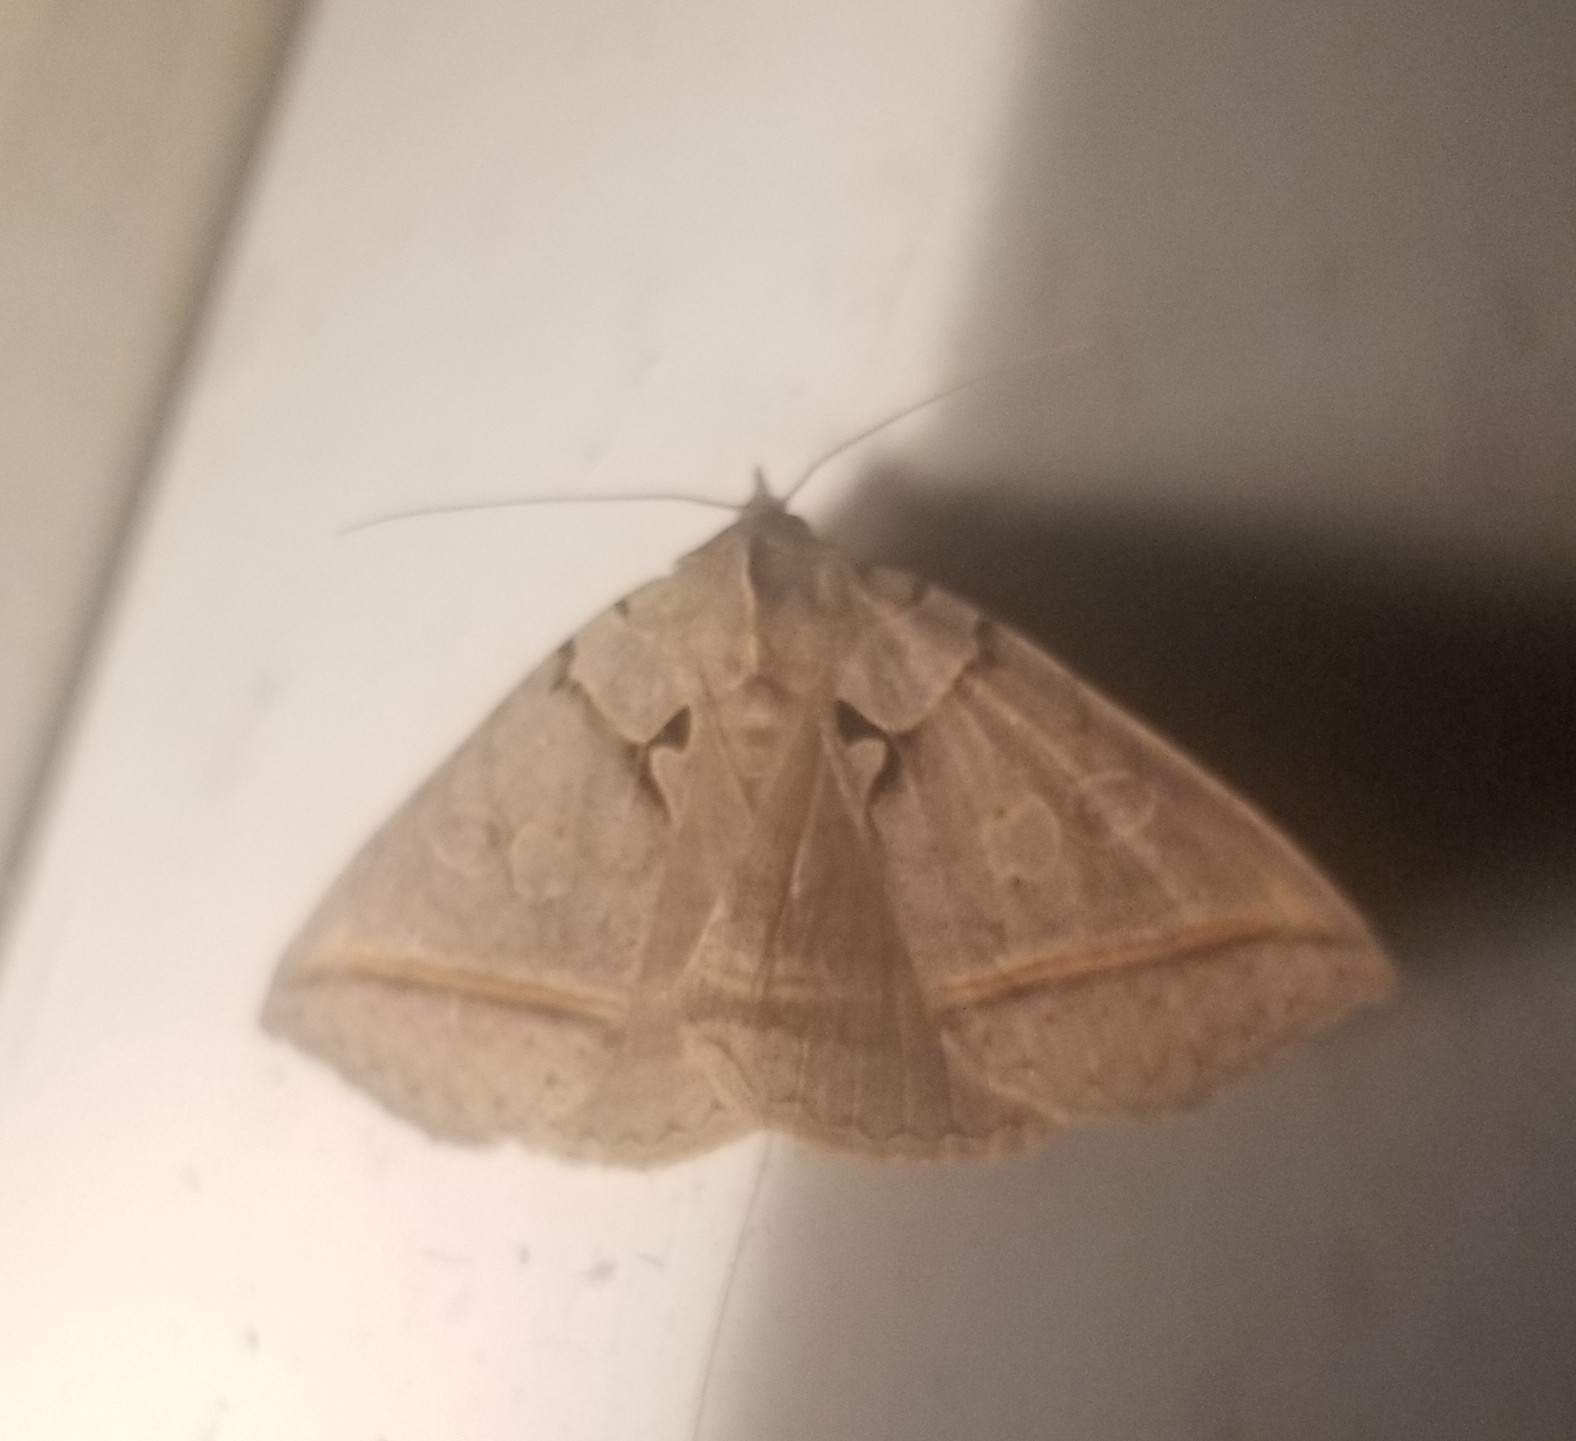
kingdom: Animalia
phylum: Arthropoda
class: Insecta
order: Lepidoptera
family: Erebidae
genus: Celiptera
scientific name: Celiptera frustulum
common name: Black bit moth
